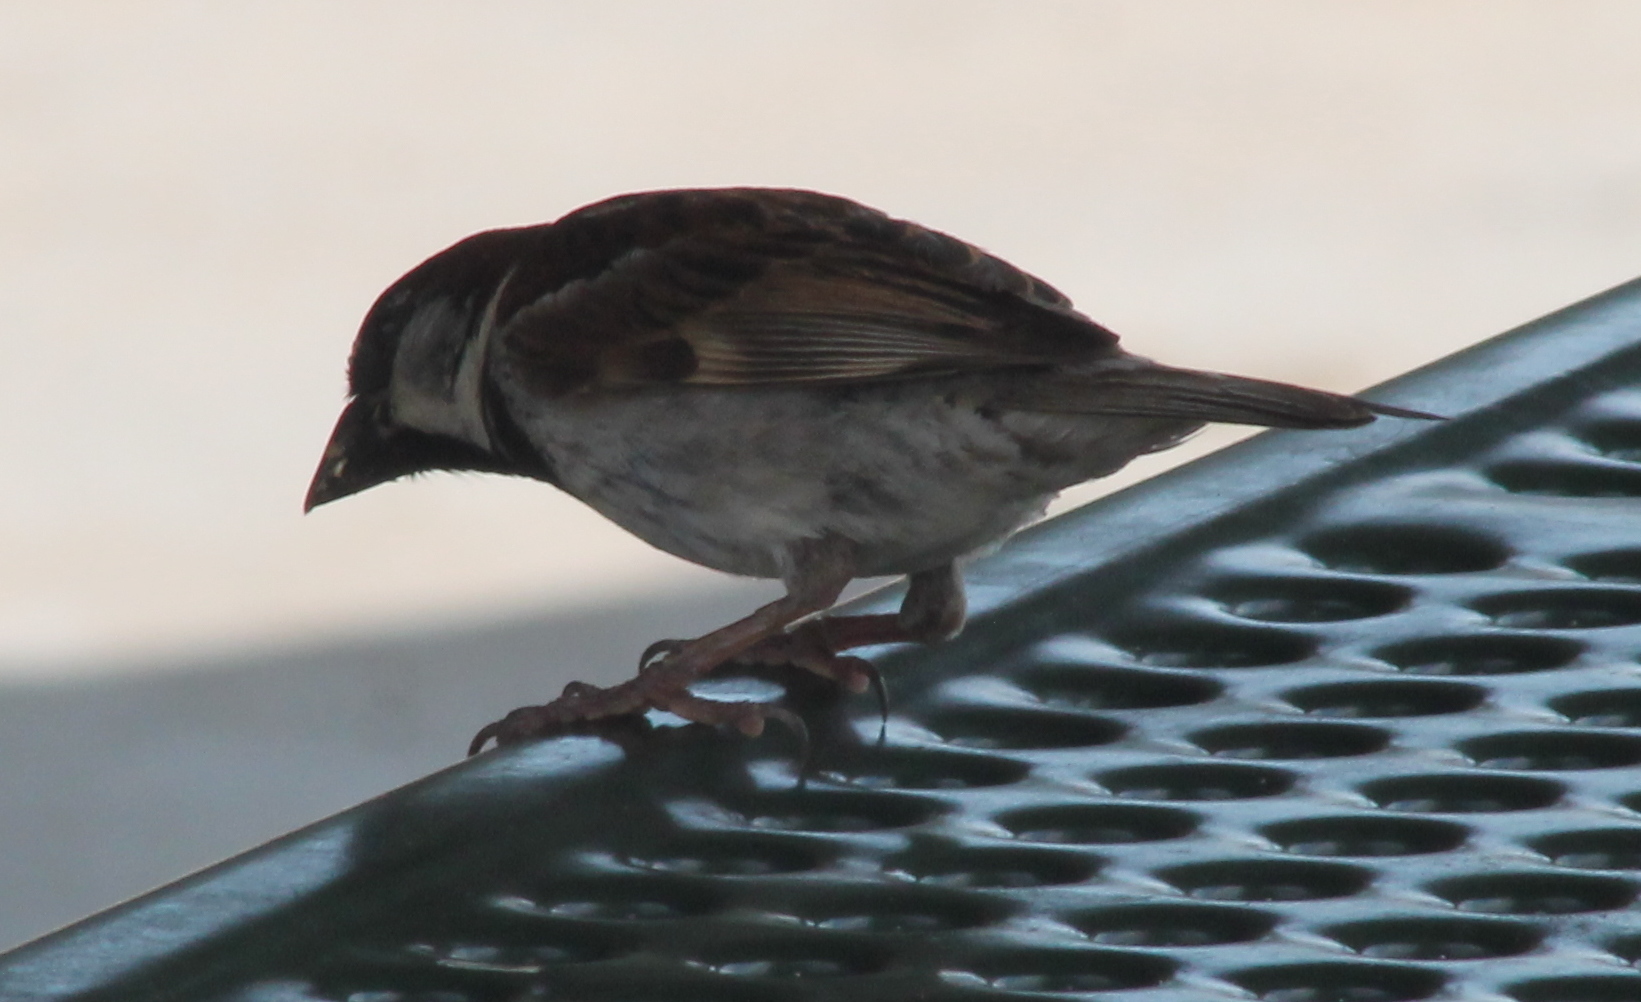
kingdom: Animalia
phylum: Chordata
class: Aves
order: Passeriformes
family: Passeridae
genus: Passer
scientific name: Passer domesticus
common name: House sparrow
